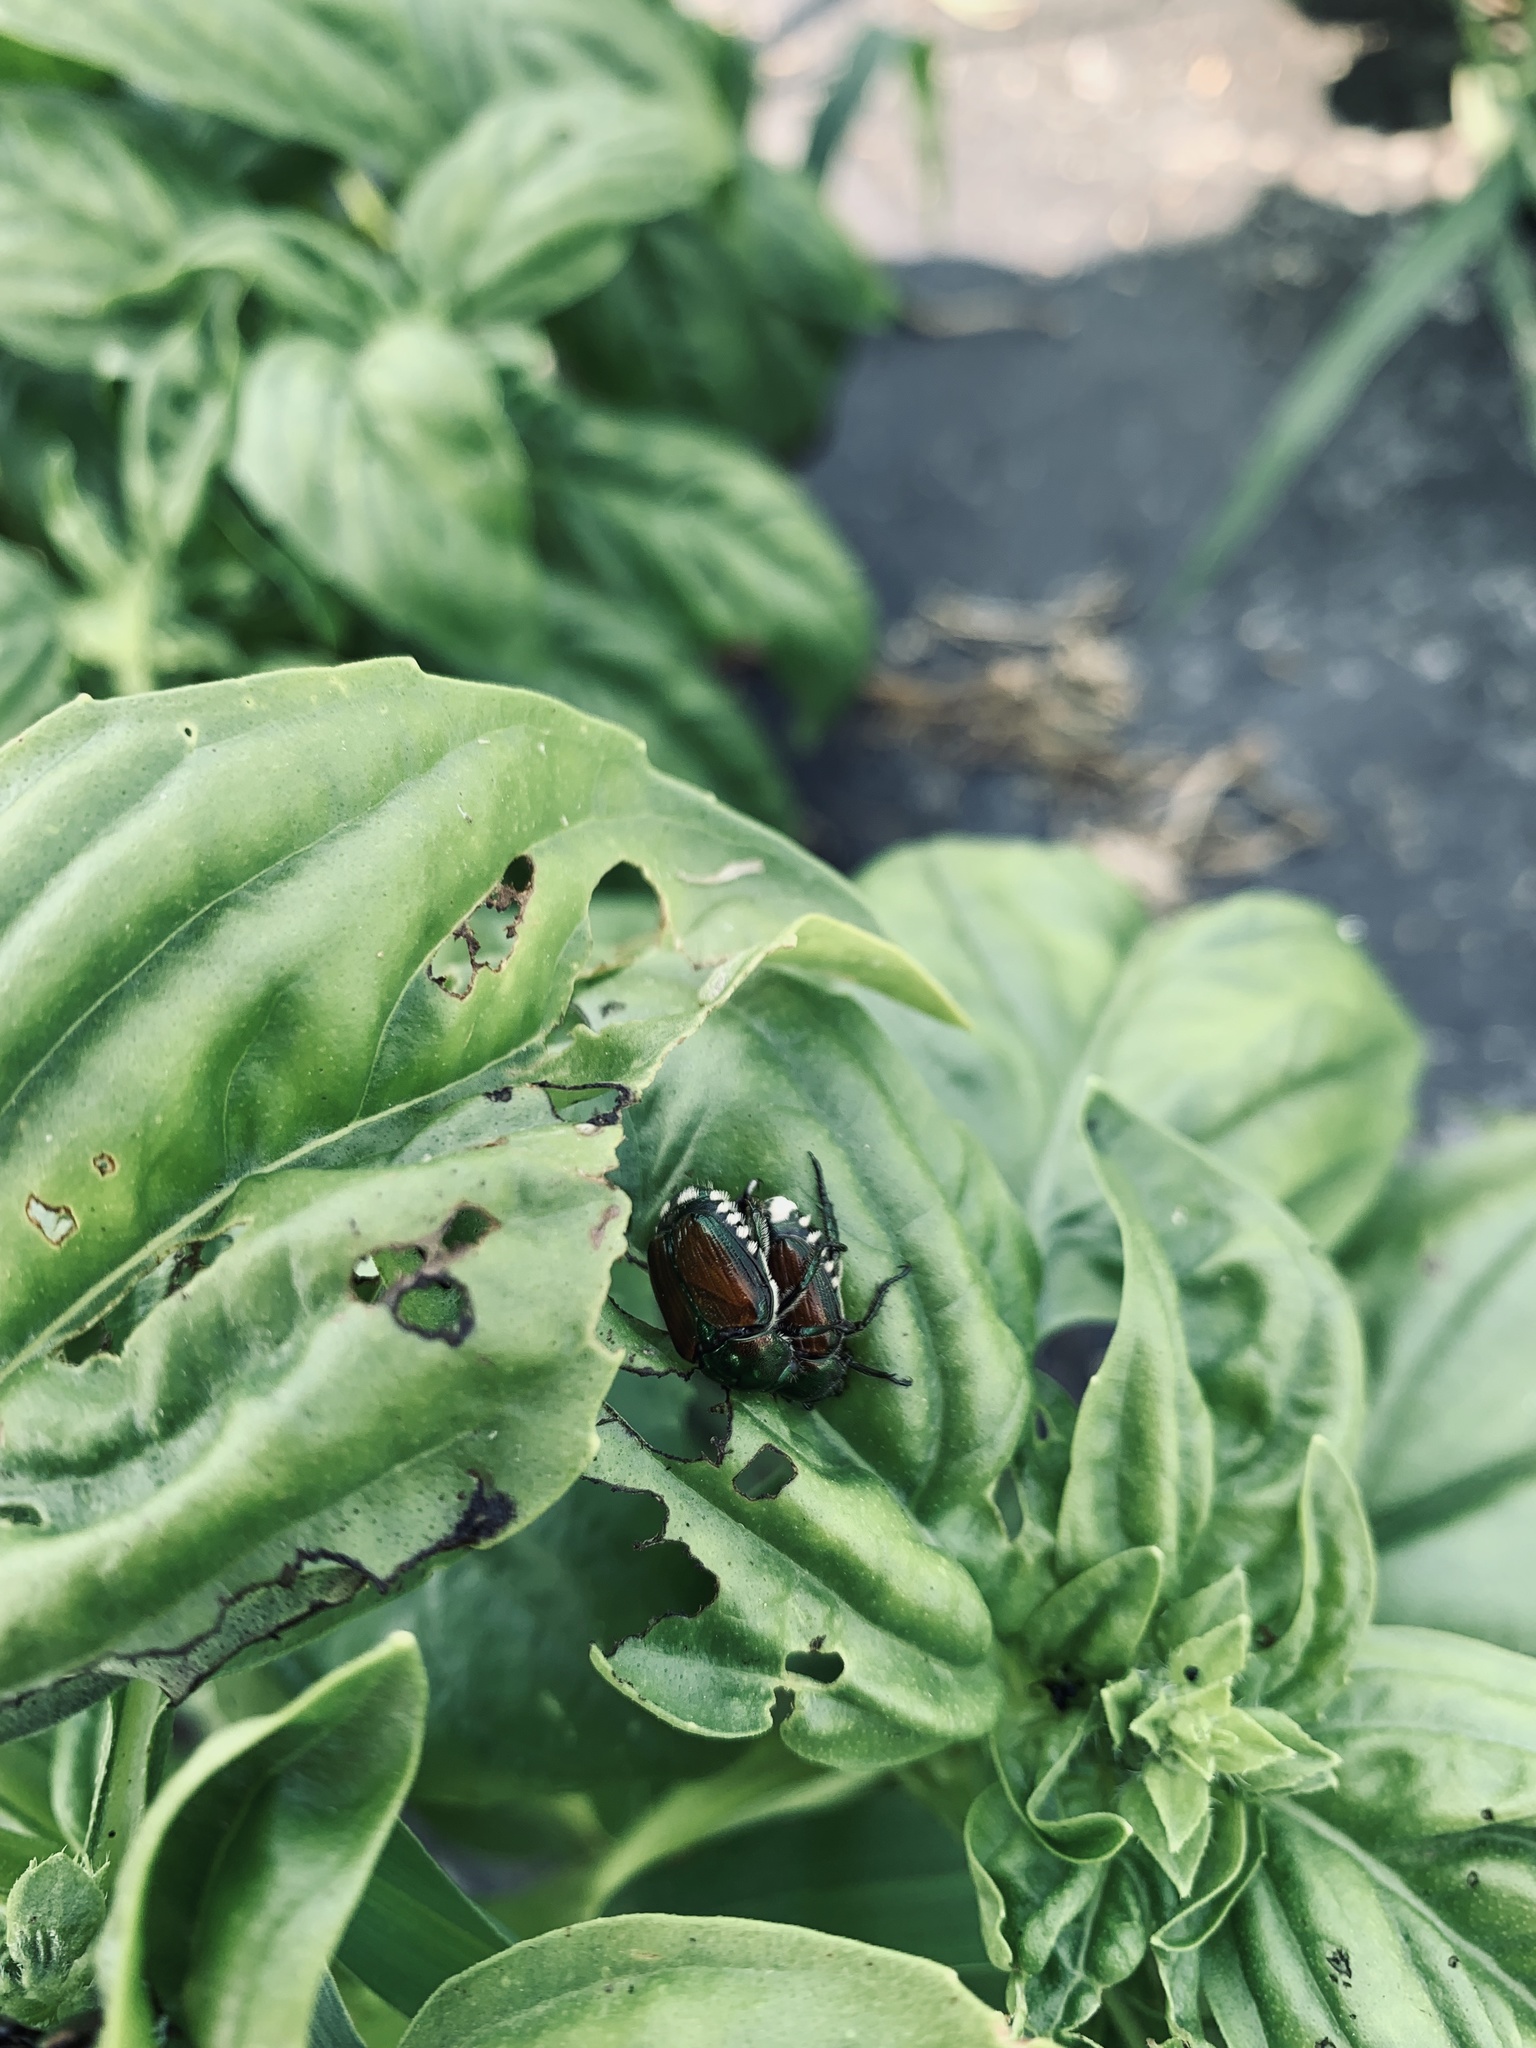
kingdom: Animalia
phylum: Arthropoda
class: Insecta
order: Coleoptera
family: Scarabaeidae
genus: Popillia
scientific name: Popillia japonica
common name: Japanese beetle
